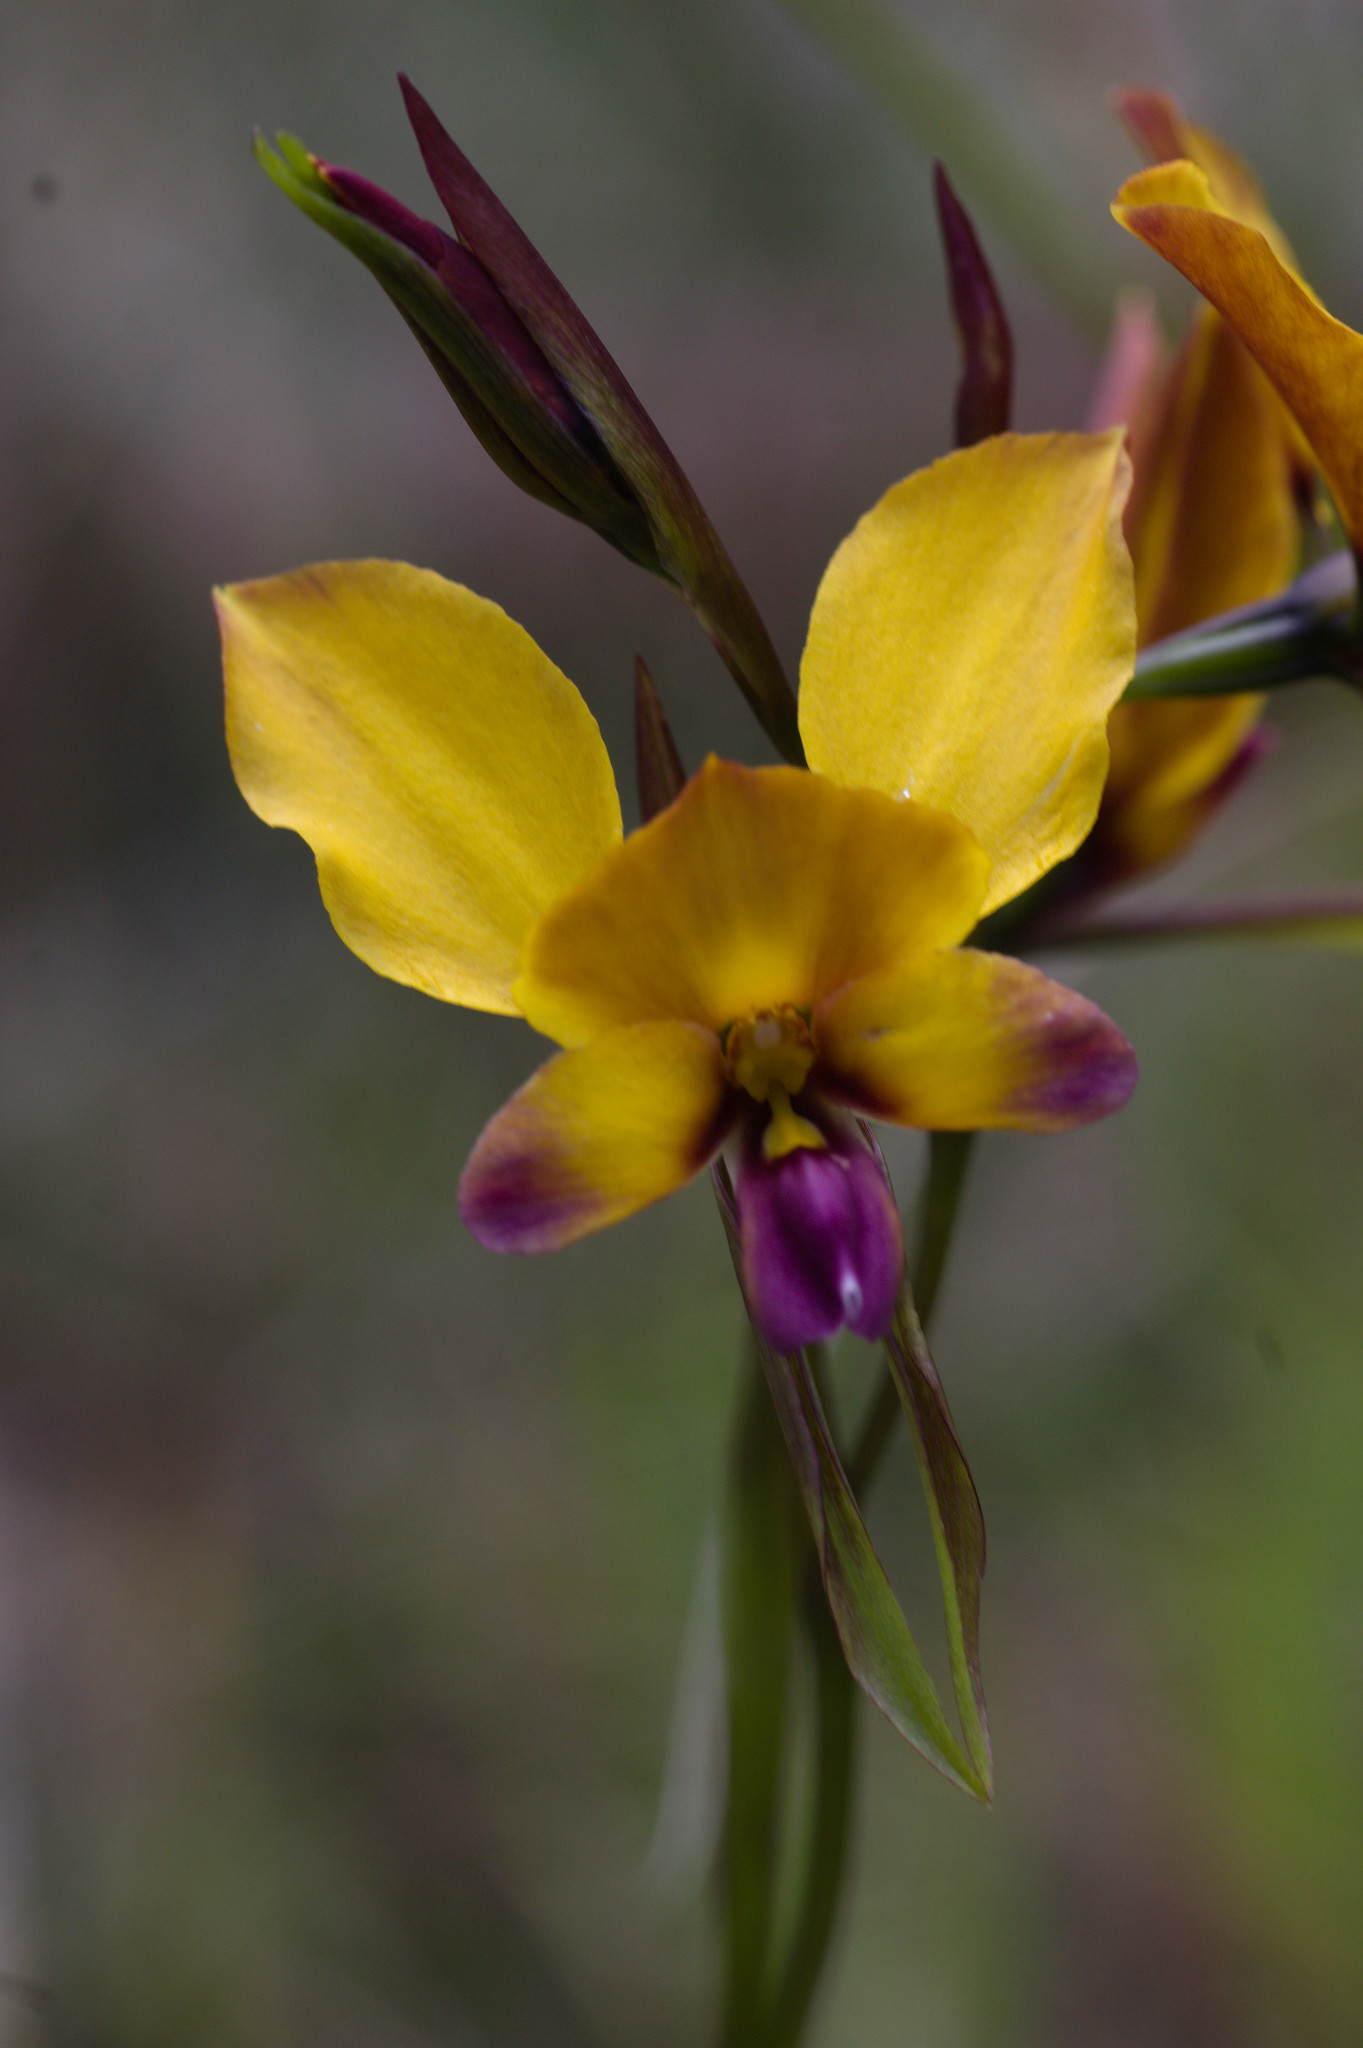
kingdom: Plantae
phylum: Tracheophyta
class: Liliopsida
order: Asparagales
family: Orchidaceae
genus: Diuris
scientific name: Diuris magnifica
